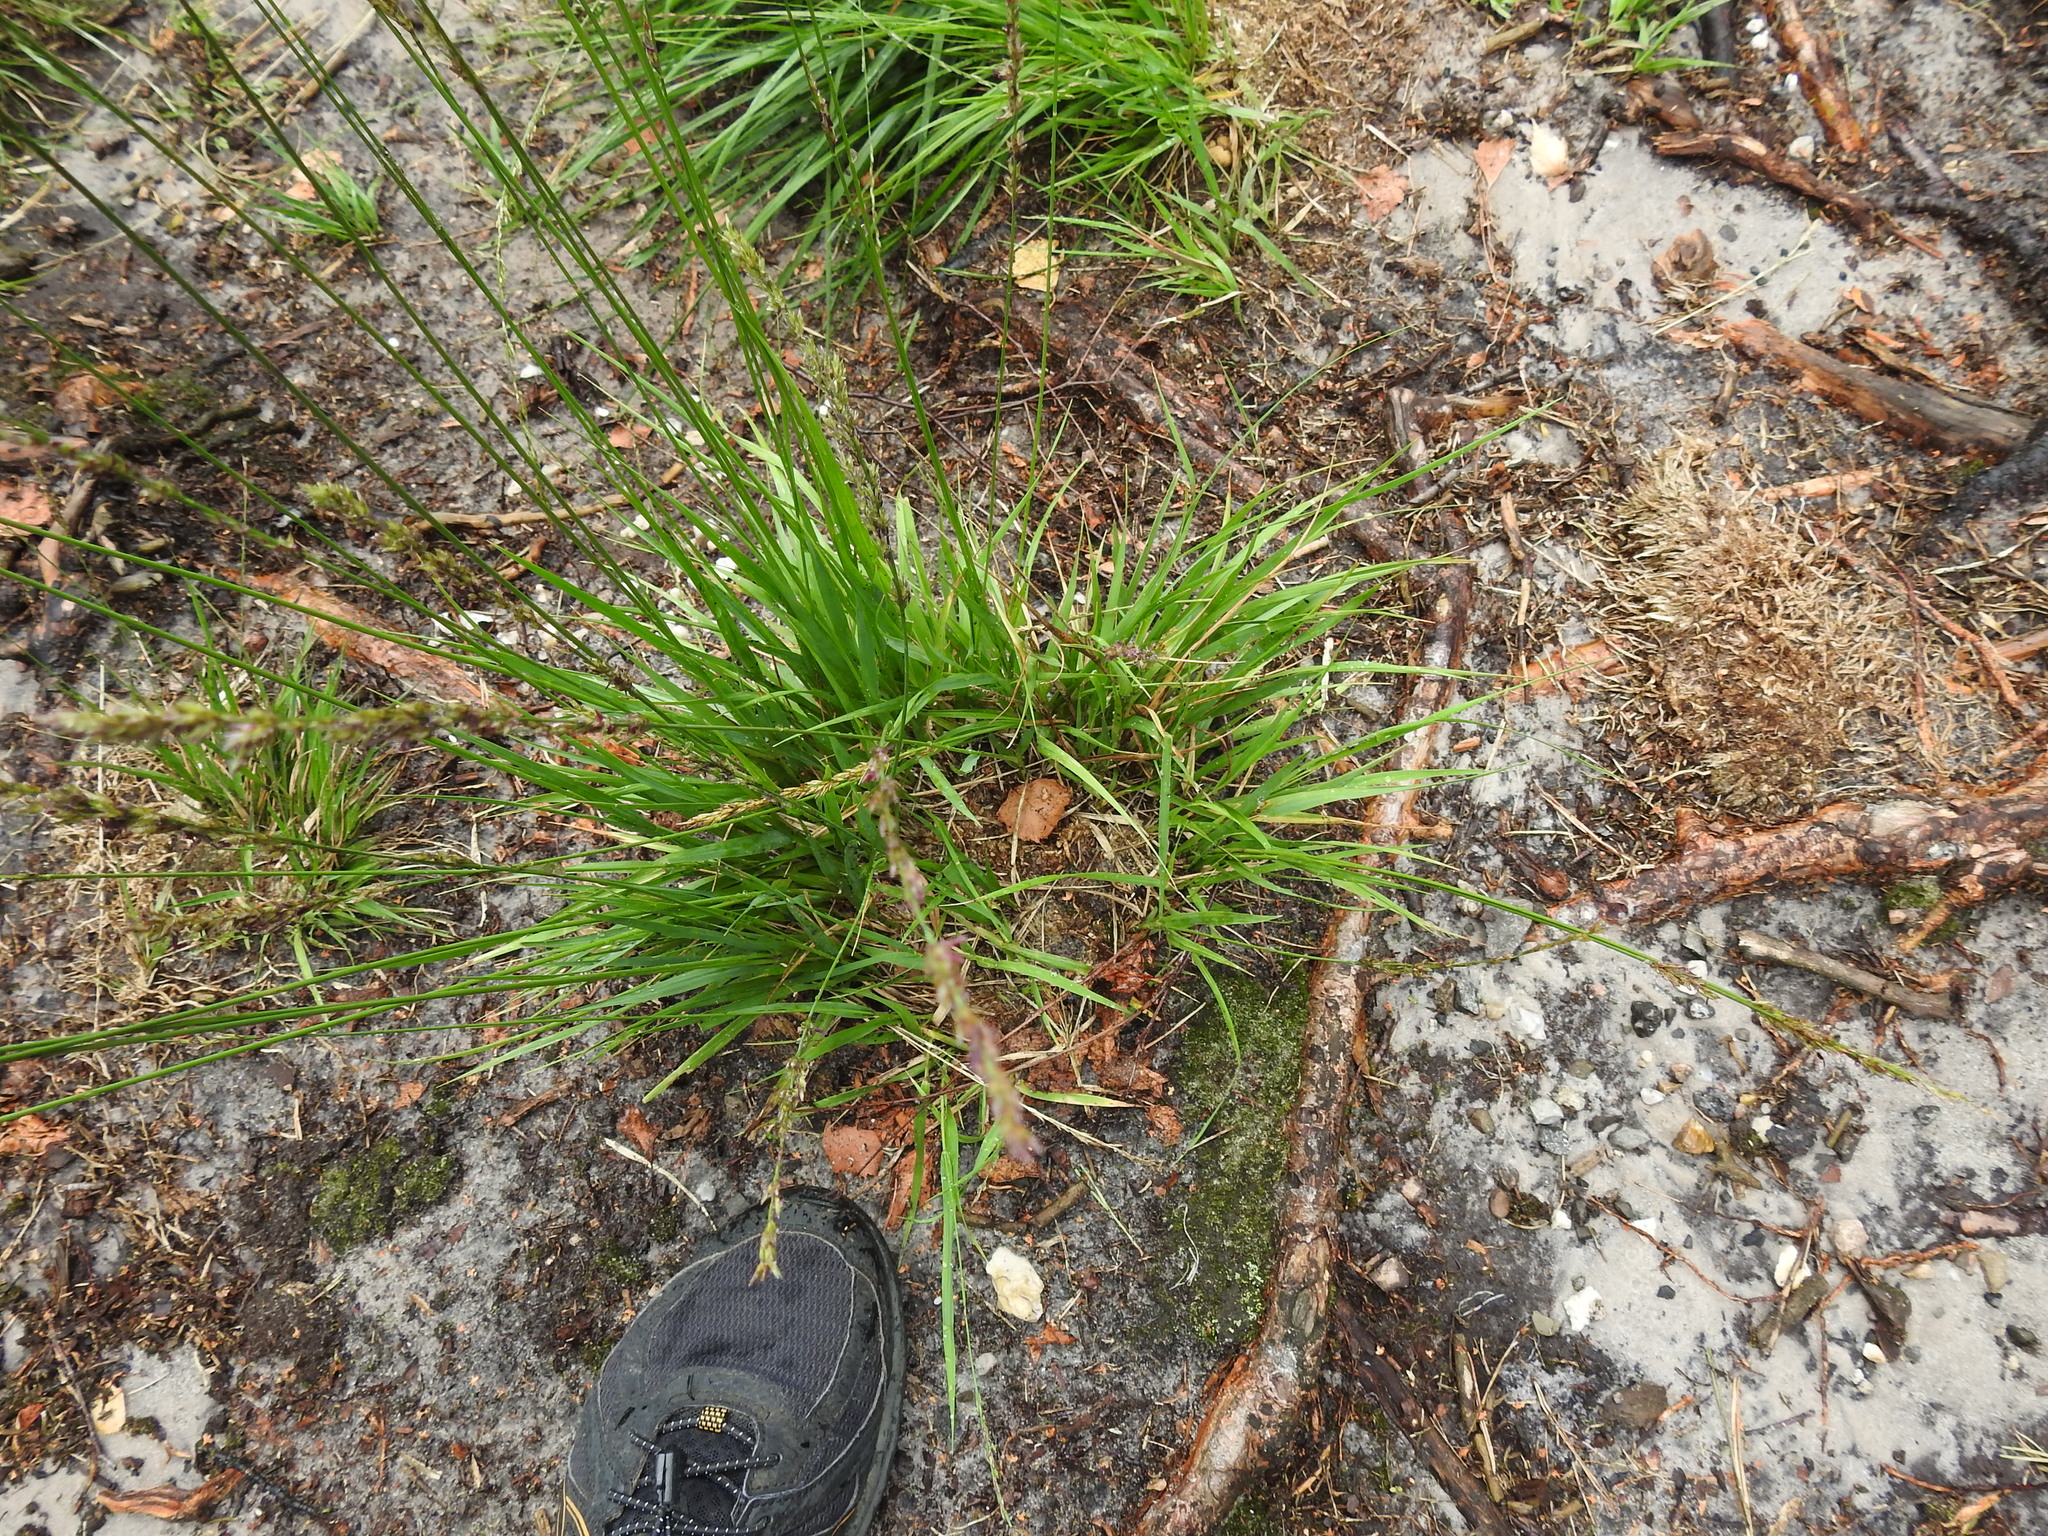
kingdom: Plantae
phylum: Tracheophyta
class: Liliopsida
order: Poales
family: Poaceae
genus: Molinia
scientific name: Molinia caerulea
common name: Purple moor-grass
